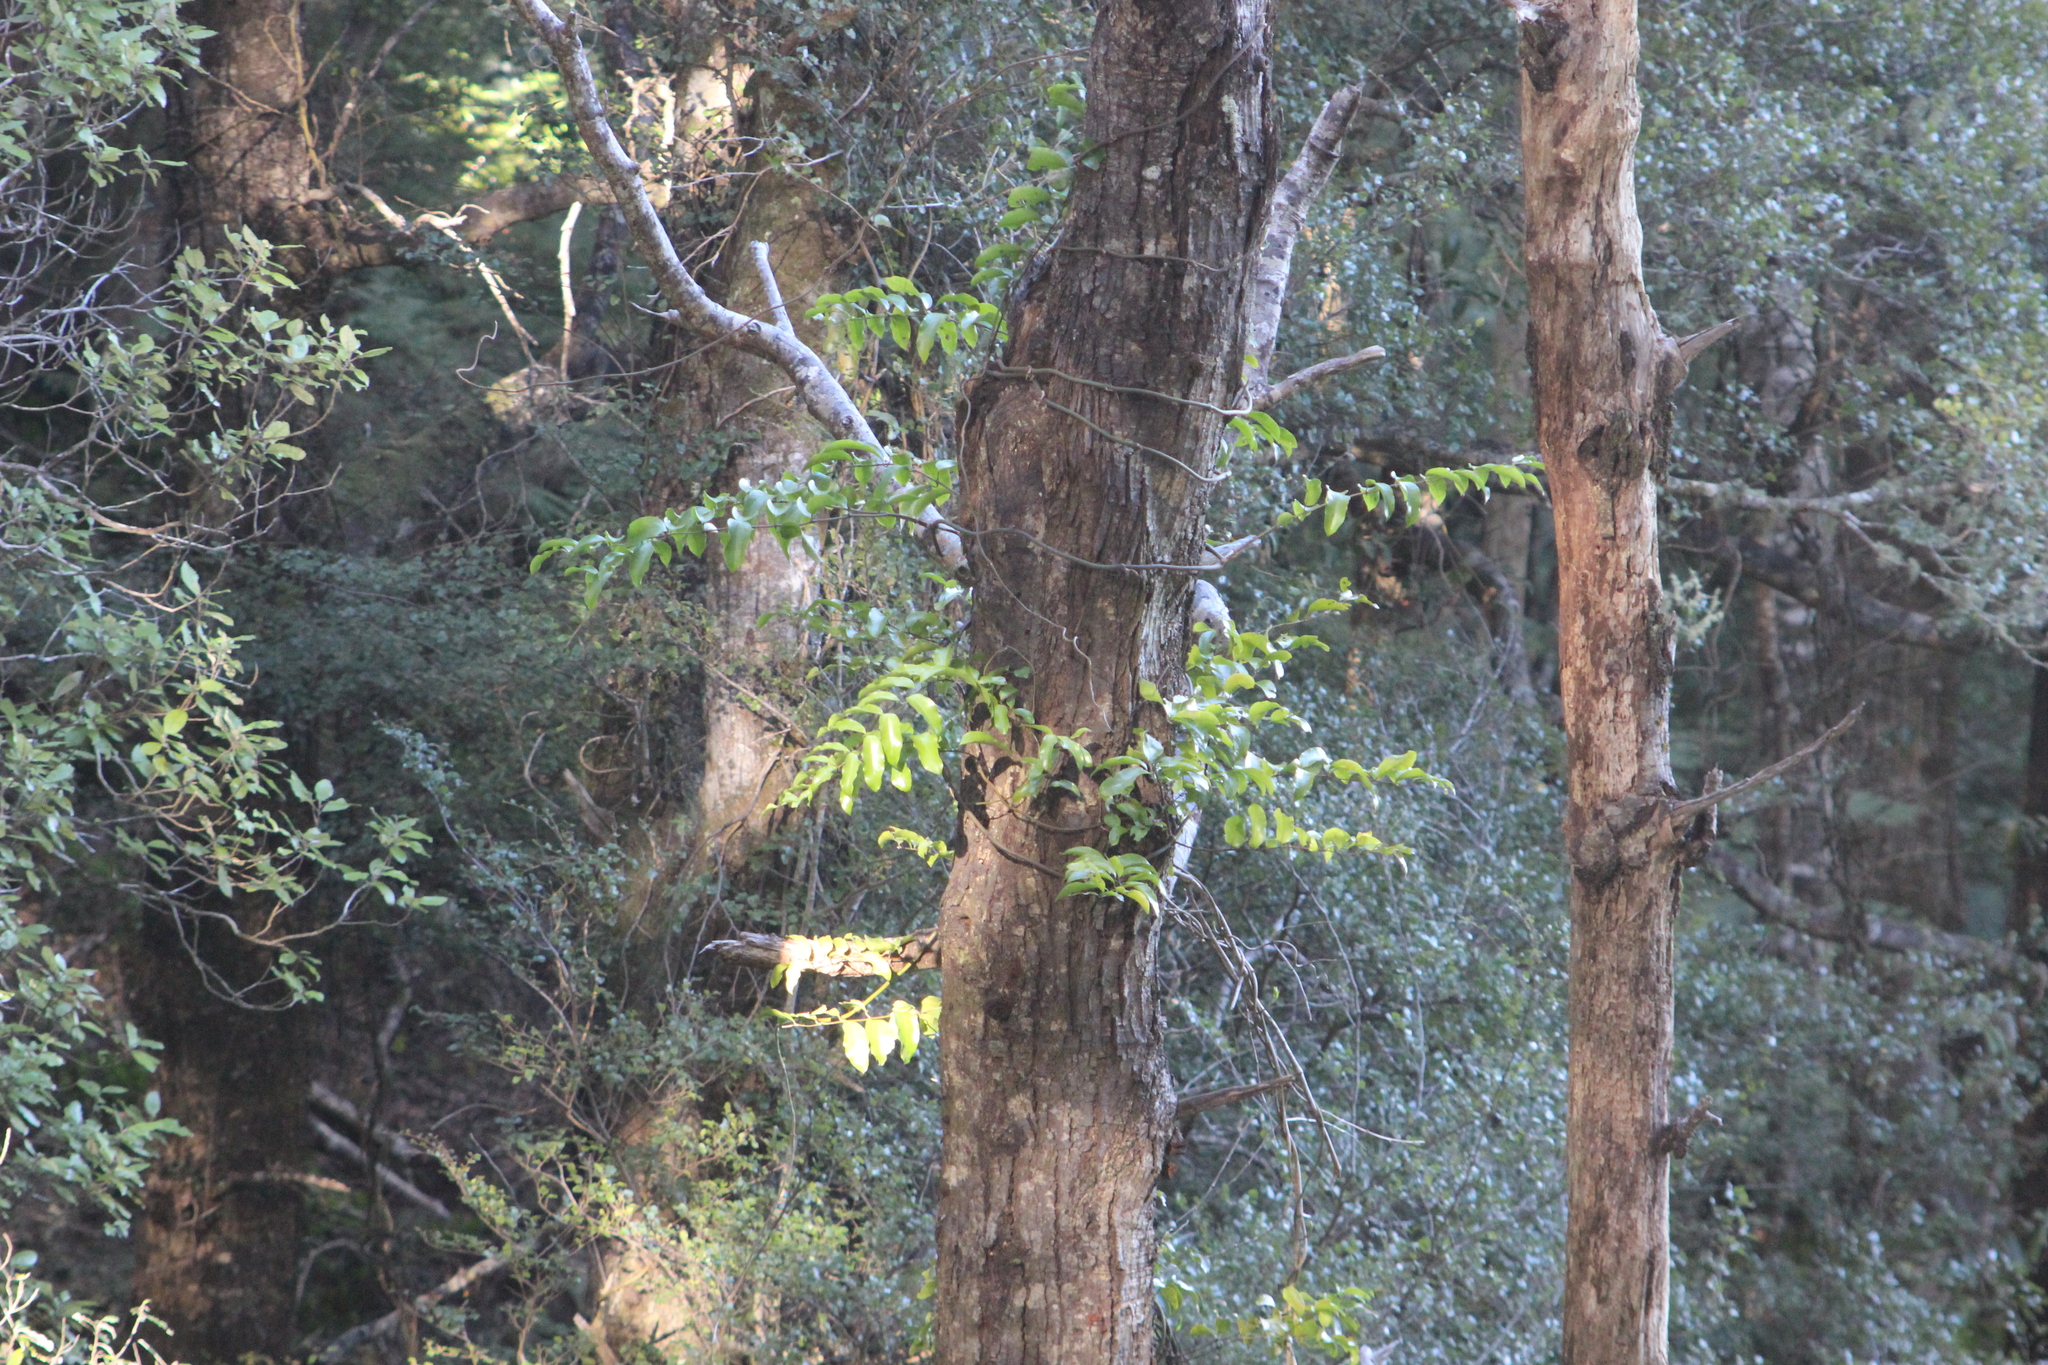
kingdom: Plantae
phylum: Tracheophyta
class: Liliopsida
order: Liliales
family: Ripogonaceae
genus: Ripogonum
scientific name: Ripogonum scandens
